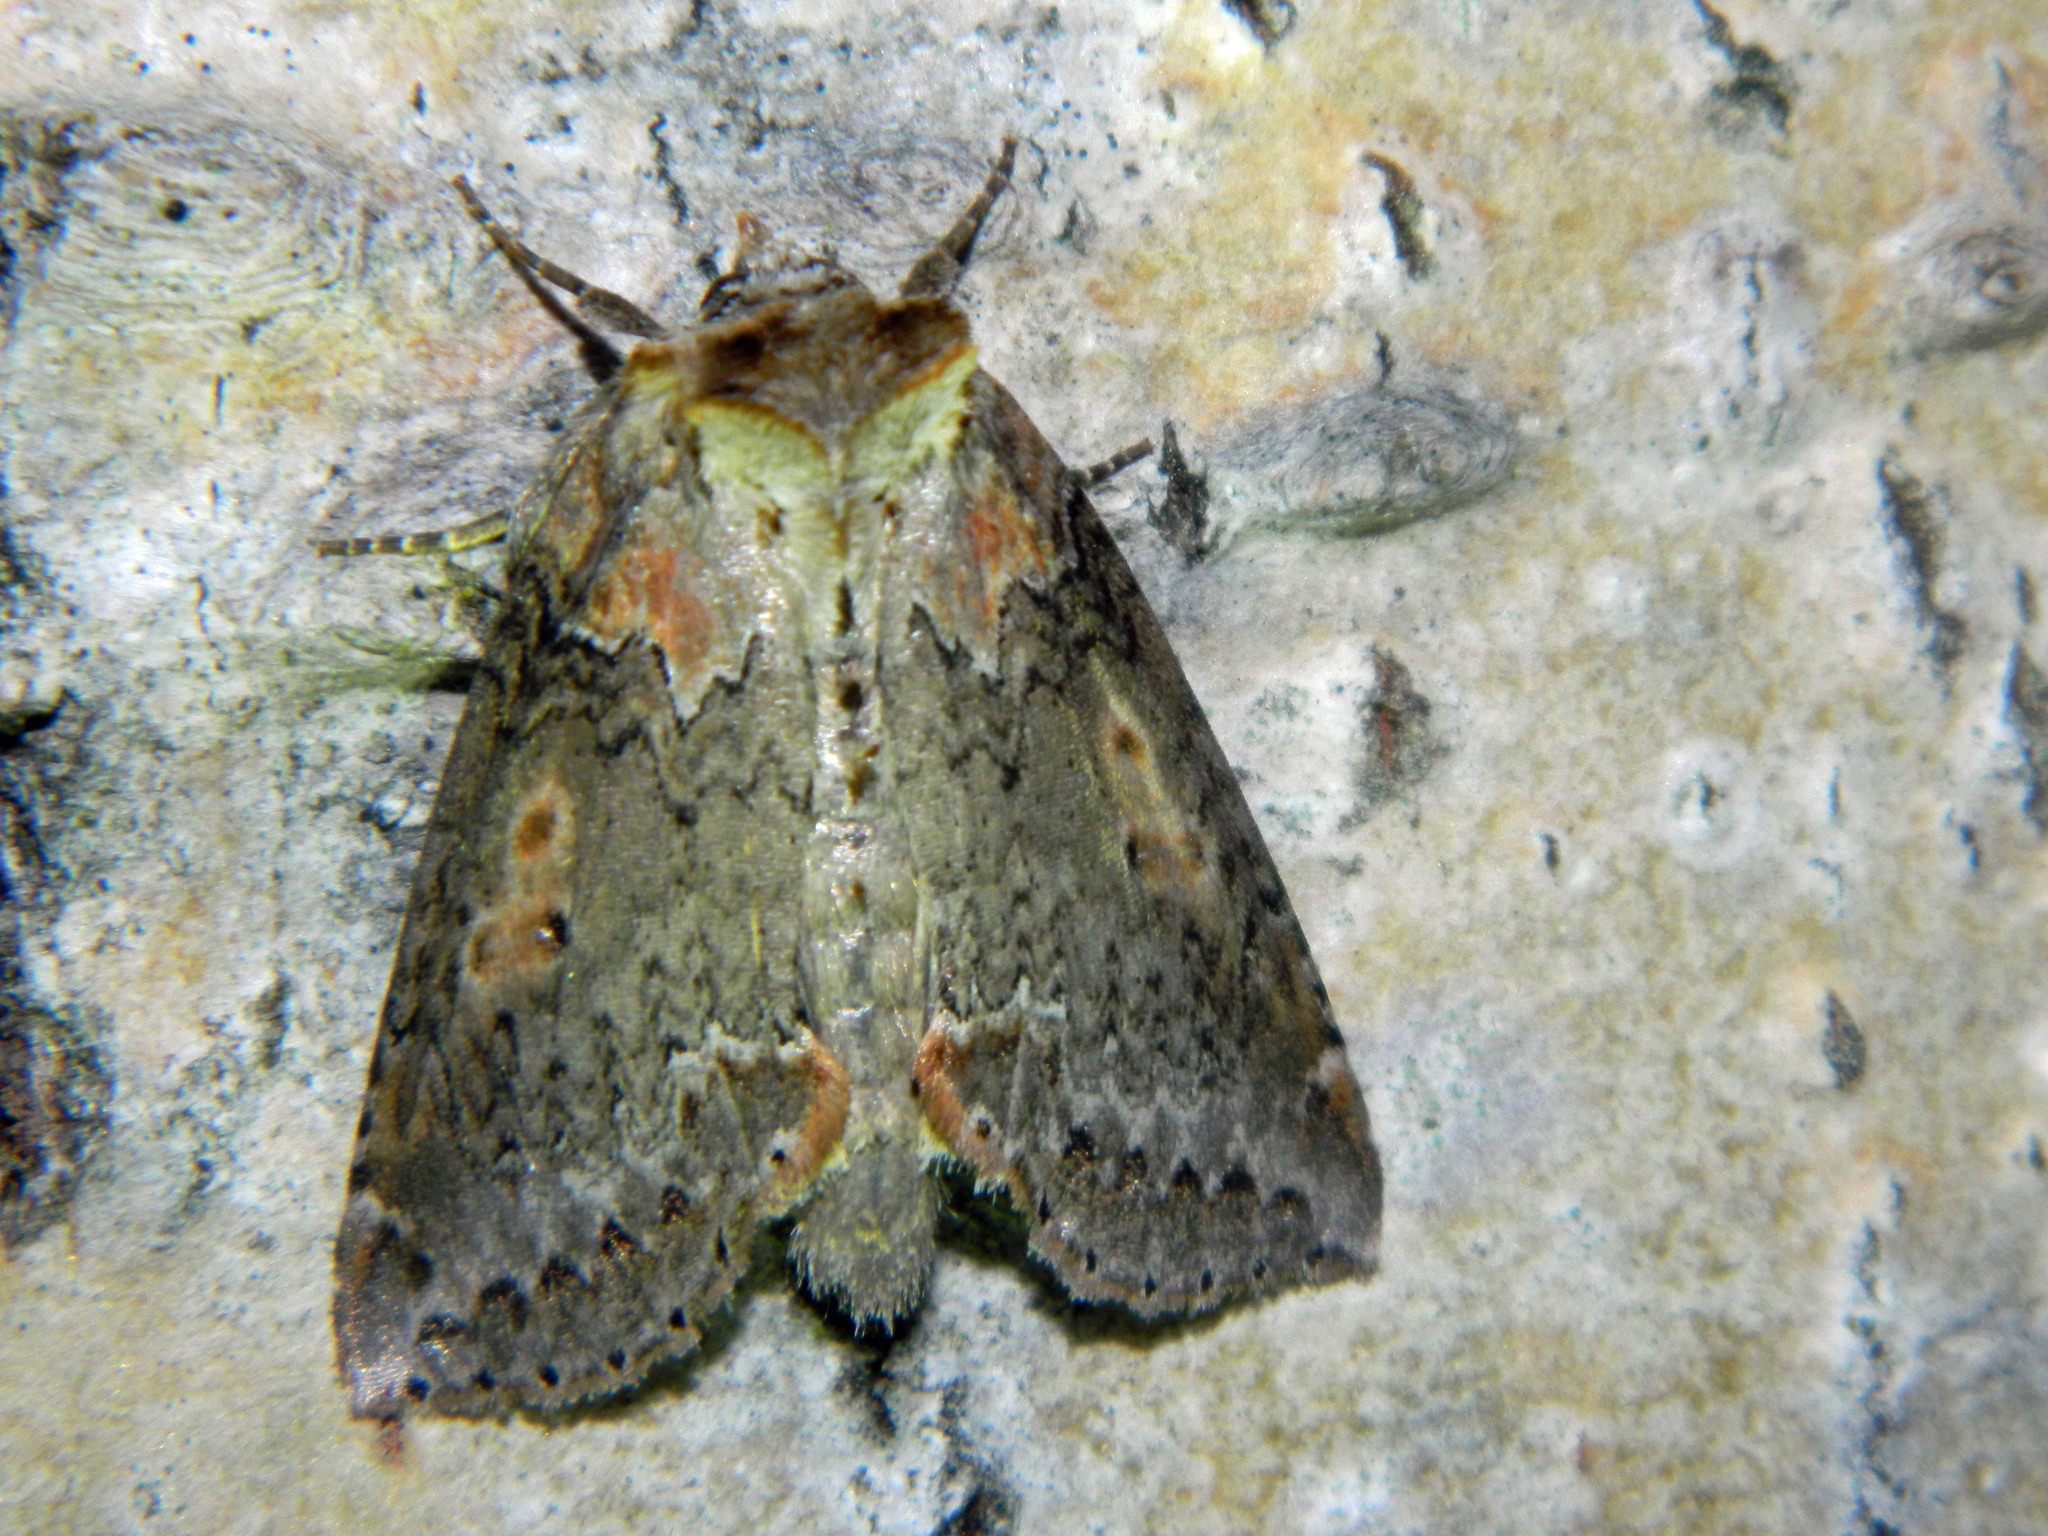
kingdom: Animalia
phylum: Arthropoda
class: Insecta
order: Lepidoptera
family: Drepanidae
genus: Pseudothyatira
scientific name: Pseudothyatira cymatophoroides
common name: Tufted thyatirid moth
